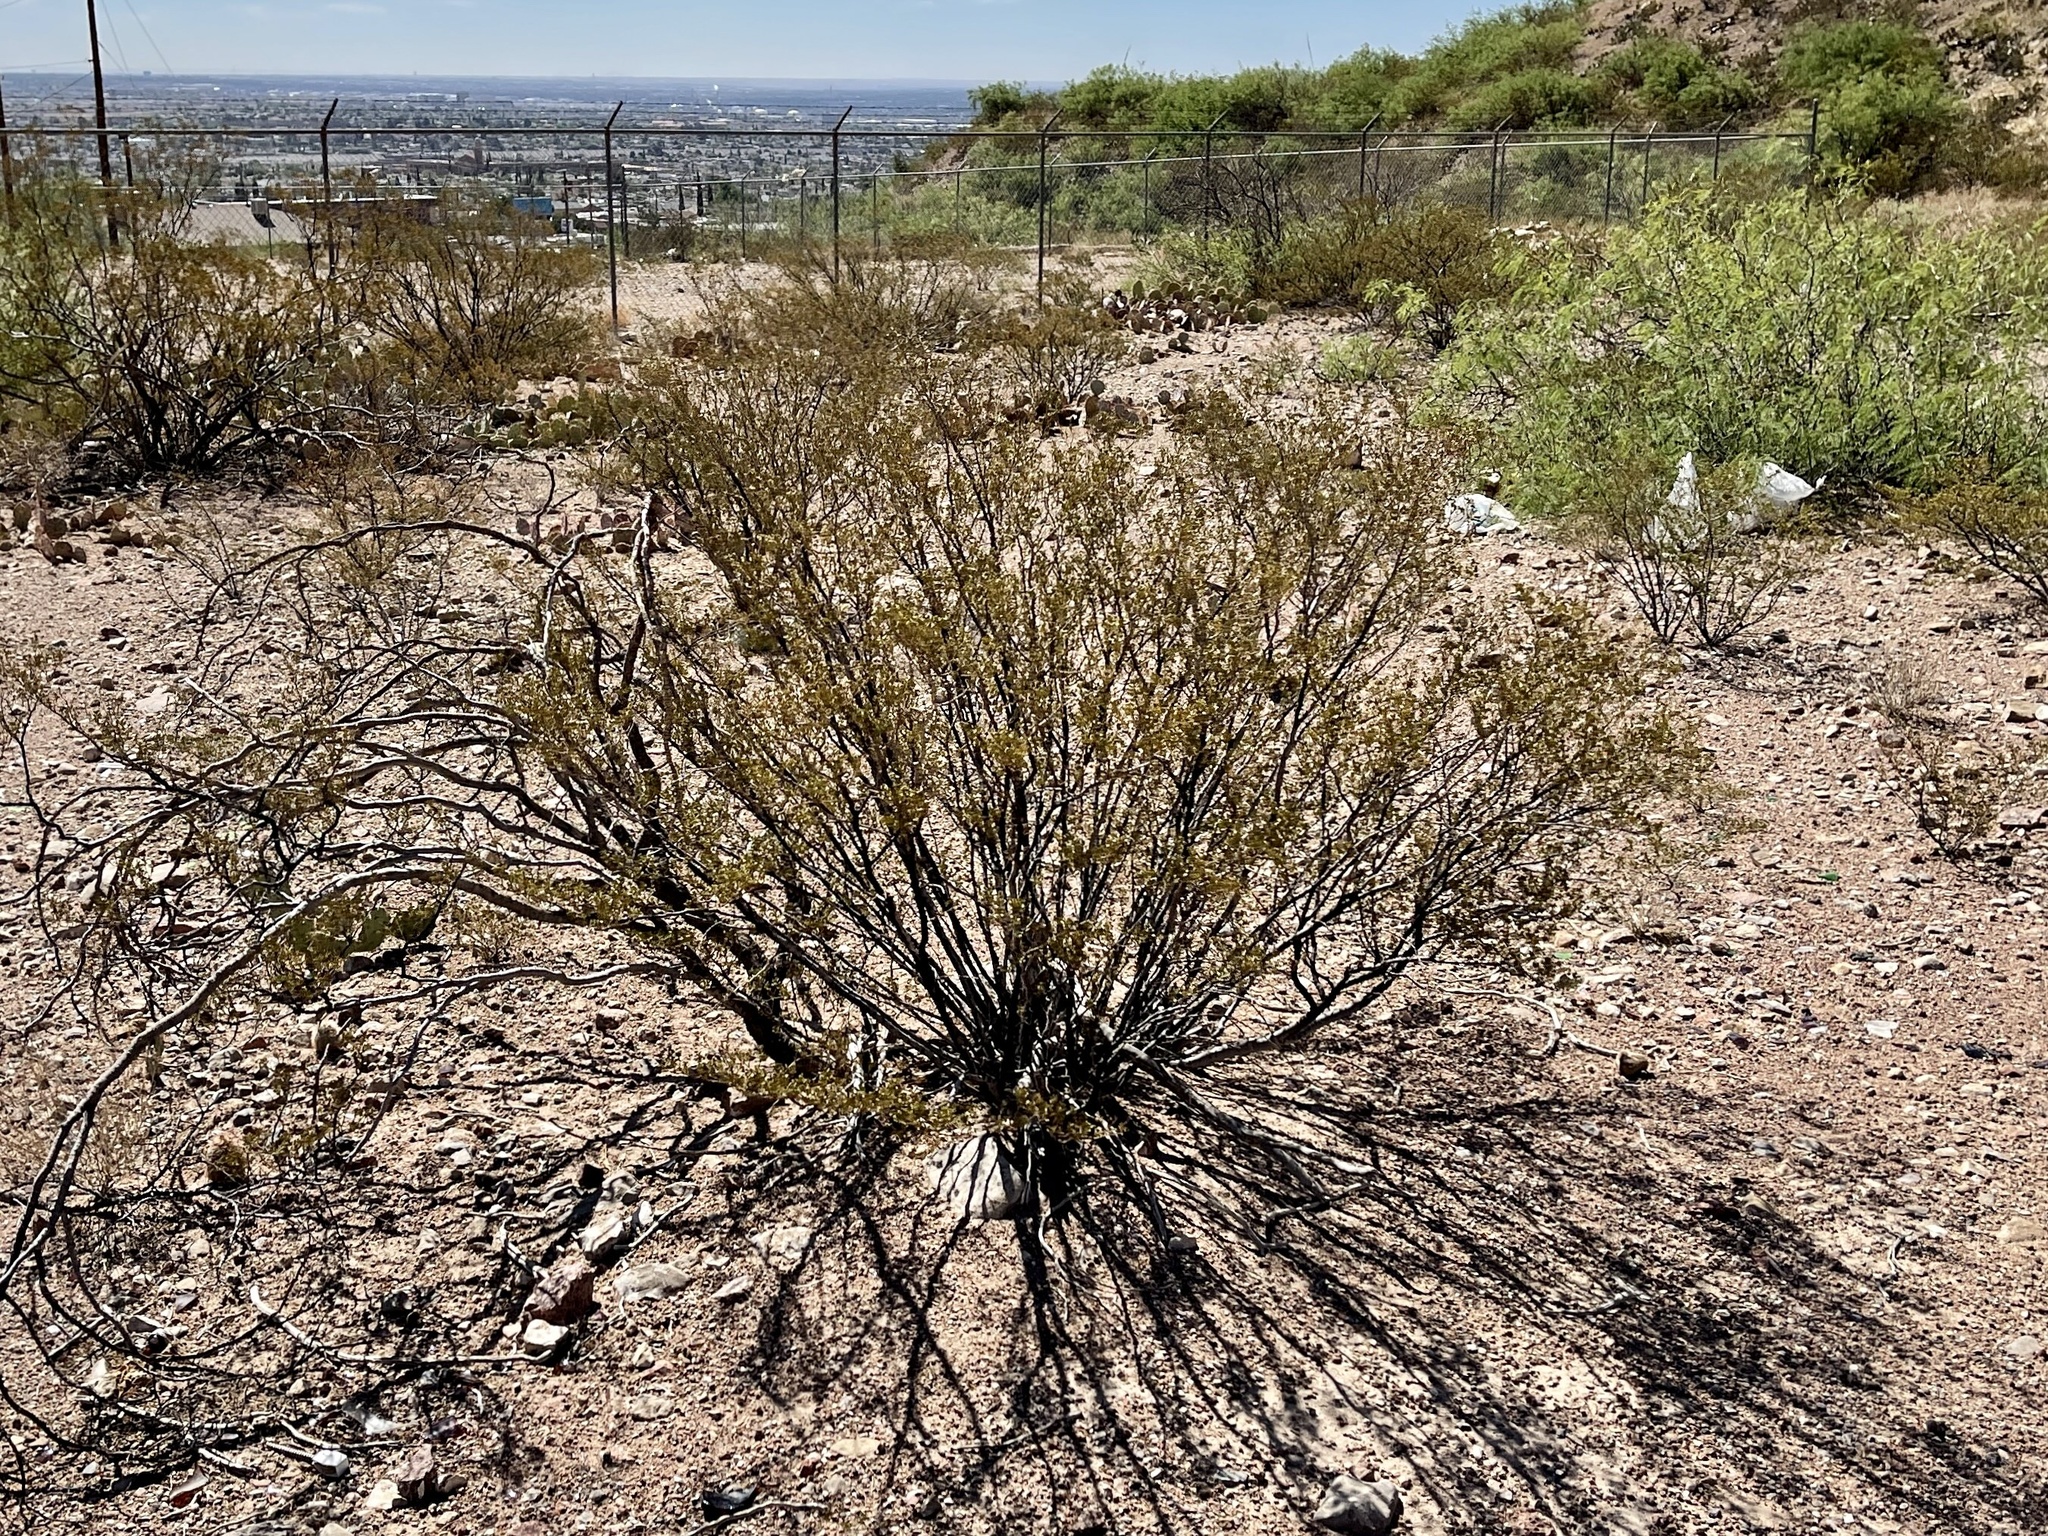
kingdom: Plantae
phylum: Tracheophyta
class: Magnoliopsida
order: Zygophyllales
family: Zygophyllaceae
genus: Larrea
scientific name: Larrea tridentata
